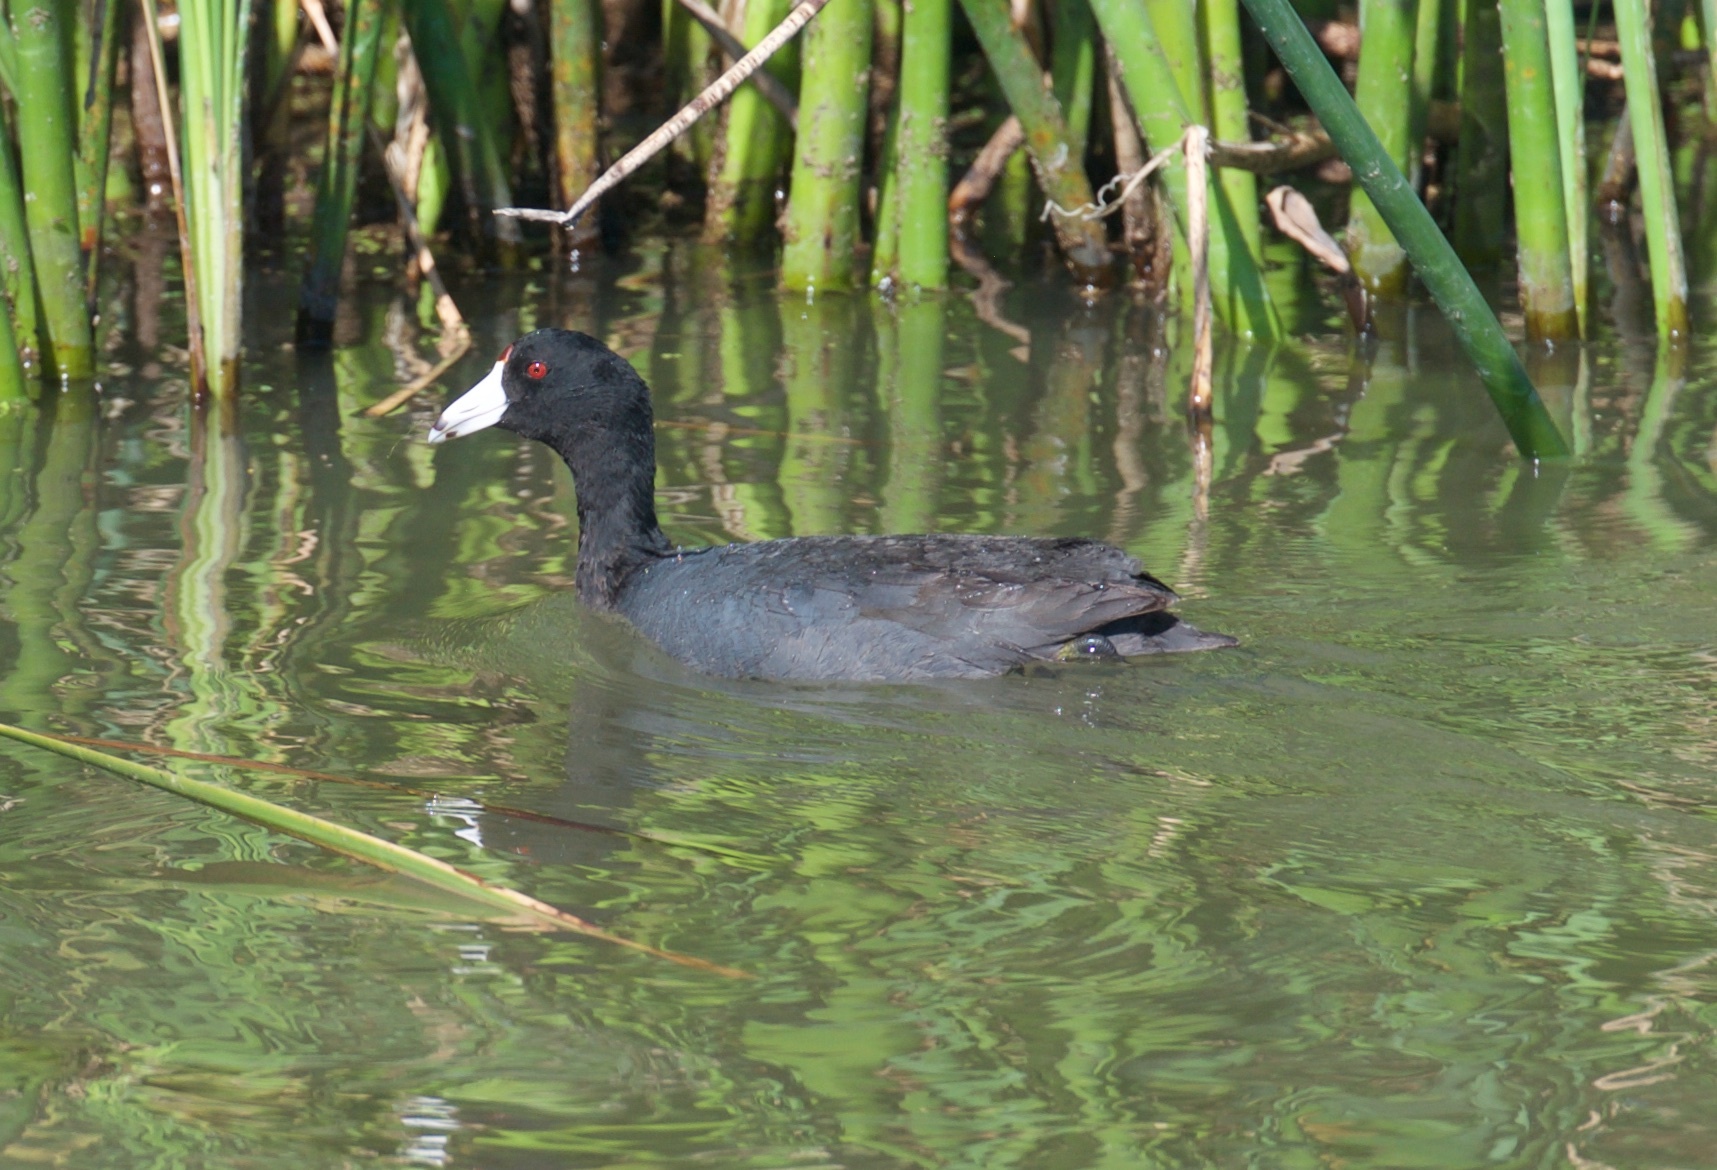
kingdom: Animalia
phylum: Chordata
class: Aves
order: Gruiformes
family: Rallidae
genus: Fulica
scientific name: Fulica americana
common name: American coot
